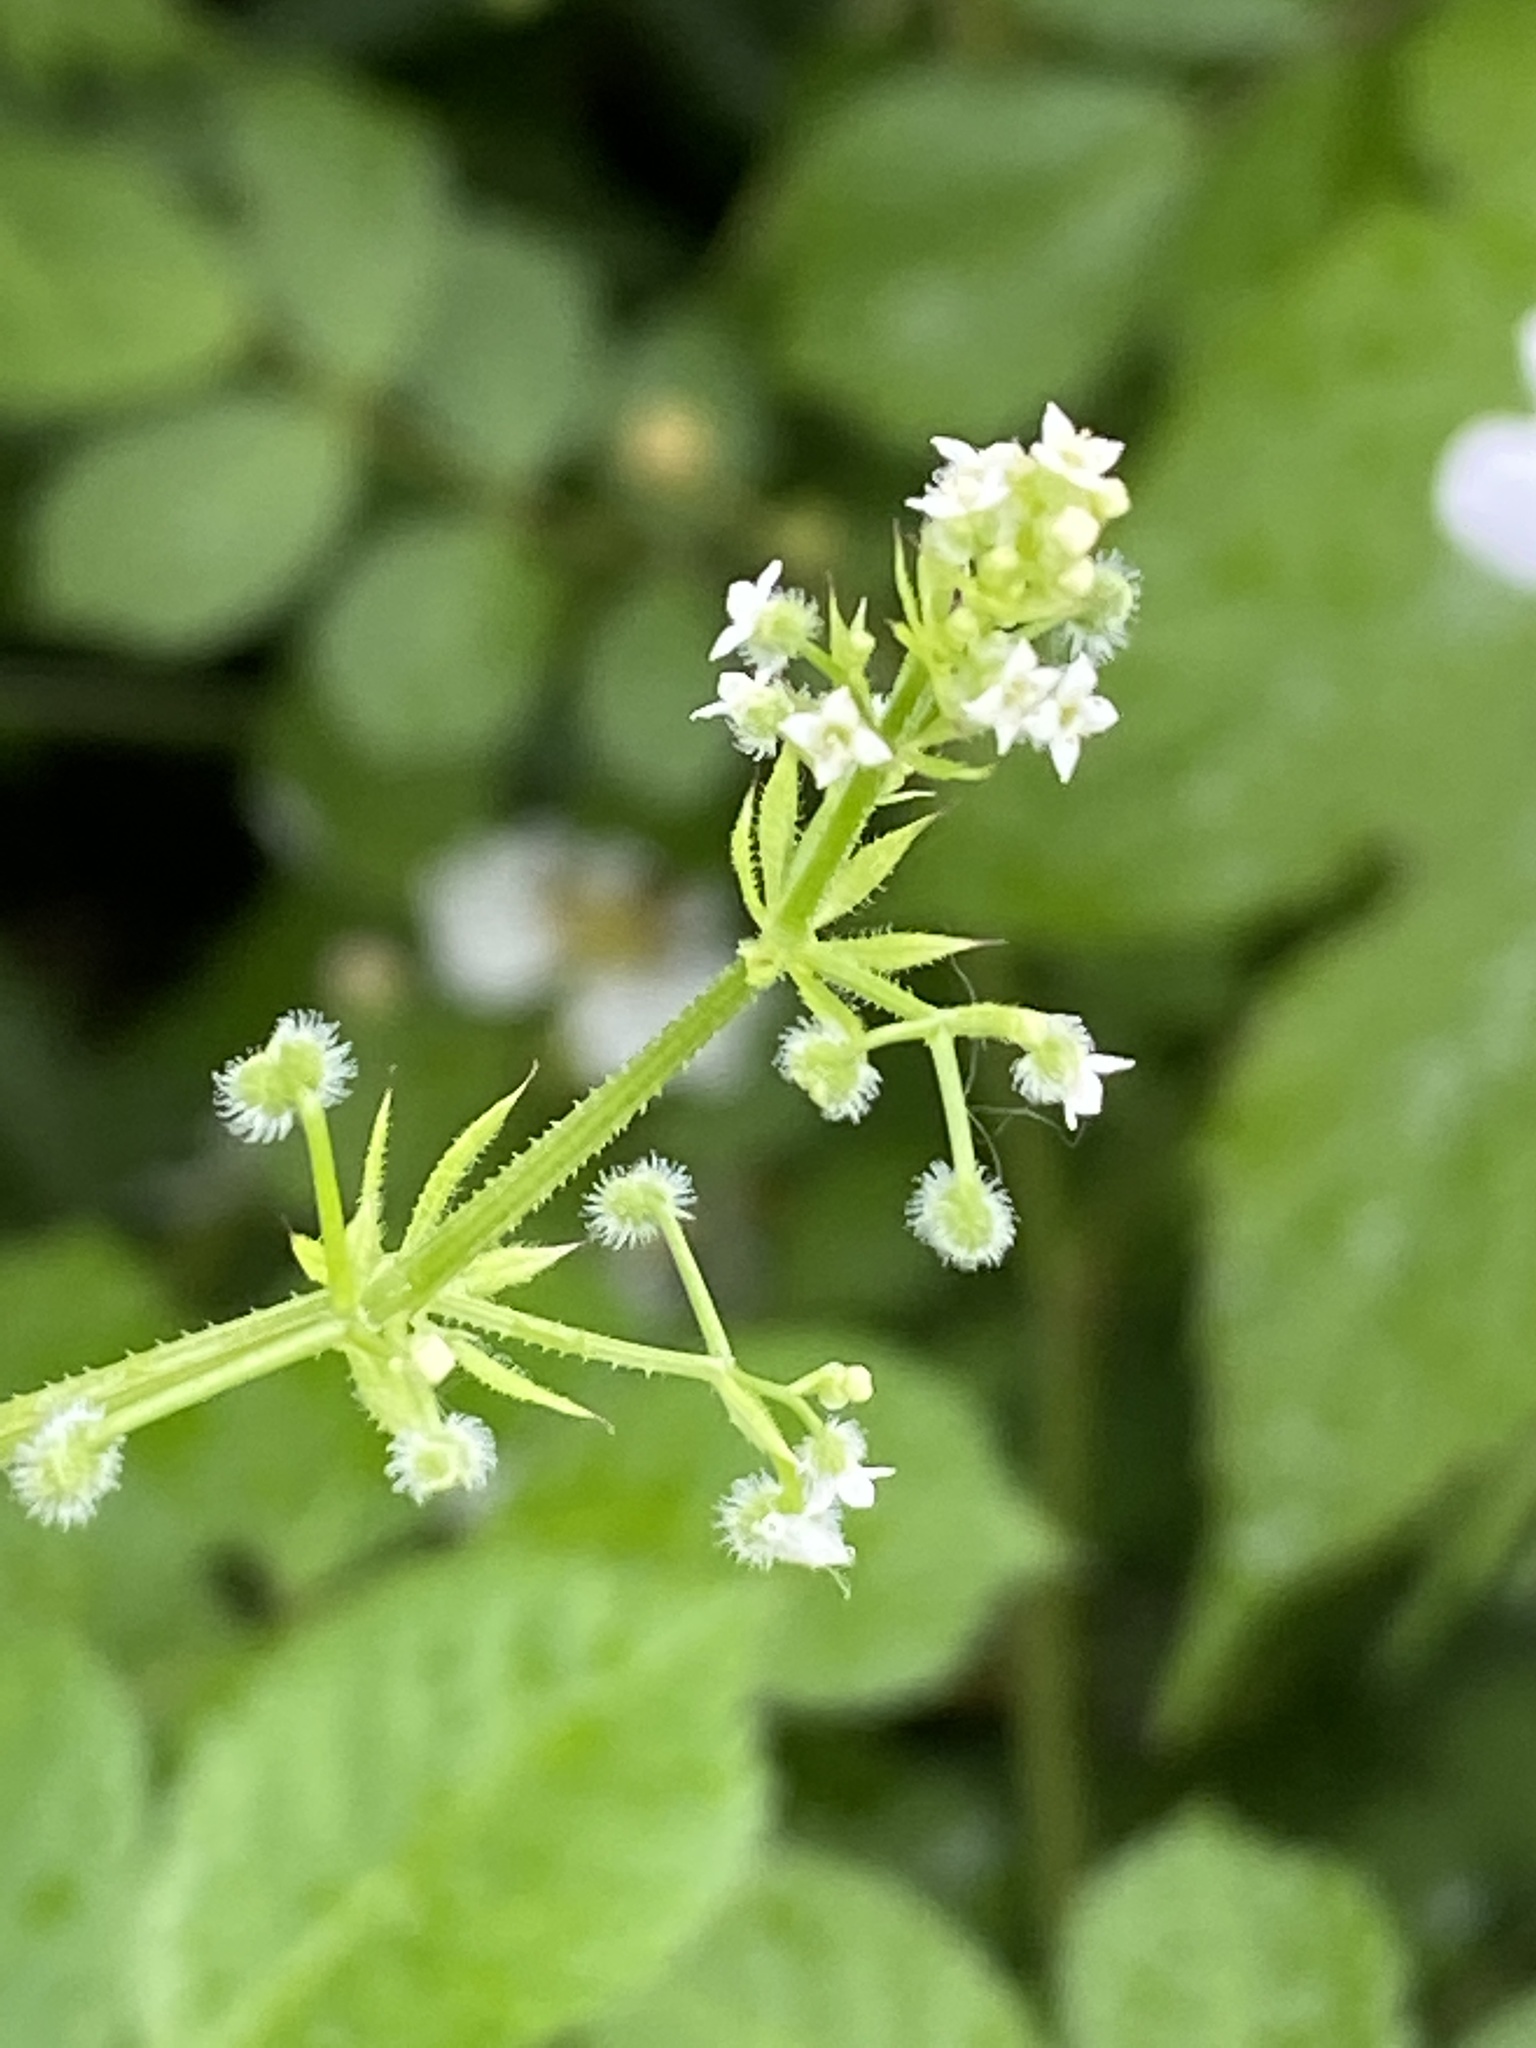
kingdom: Plantae
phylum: Tracheophyta
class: Magnoliopsida
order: Gentianales
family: Rubiaceae
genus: Galium
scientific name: Galium aparine
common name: Cleavers
